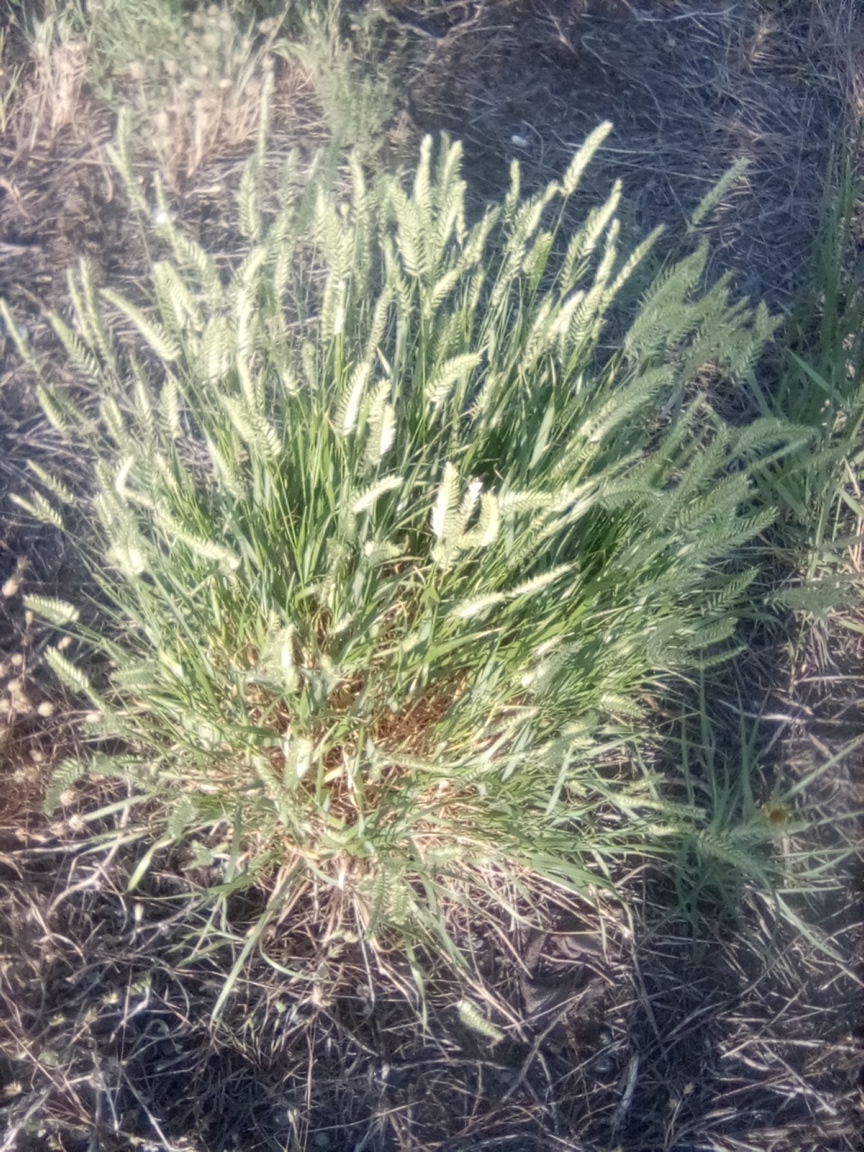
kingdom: Plantae
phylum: Tracheophyta
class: Liliopsida
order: Poales
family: Poaceae
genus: Agropyron
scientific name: Agropyron cristatum
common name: Crested wheatgrass
